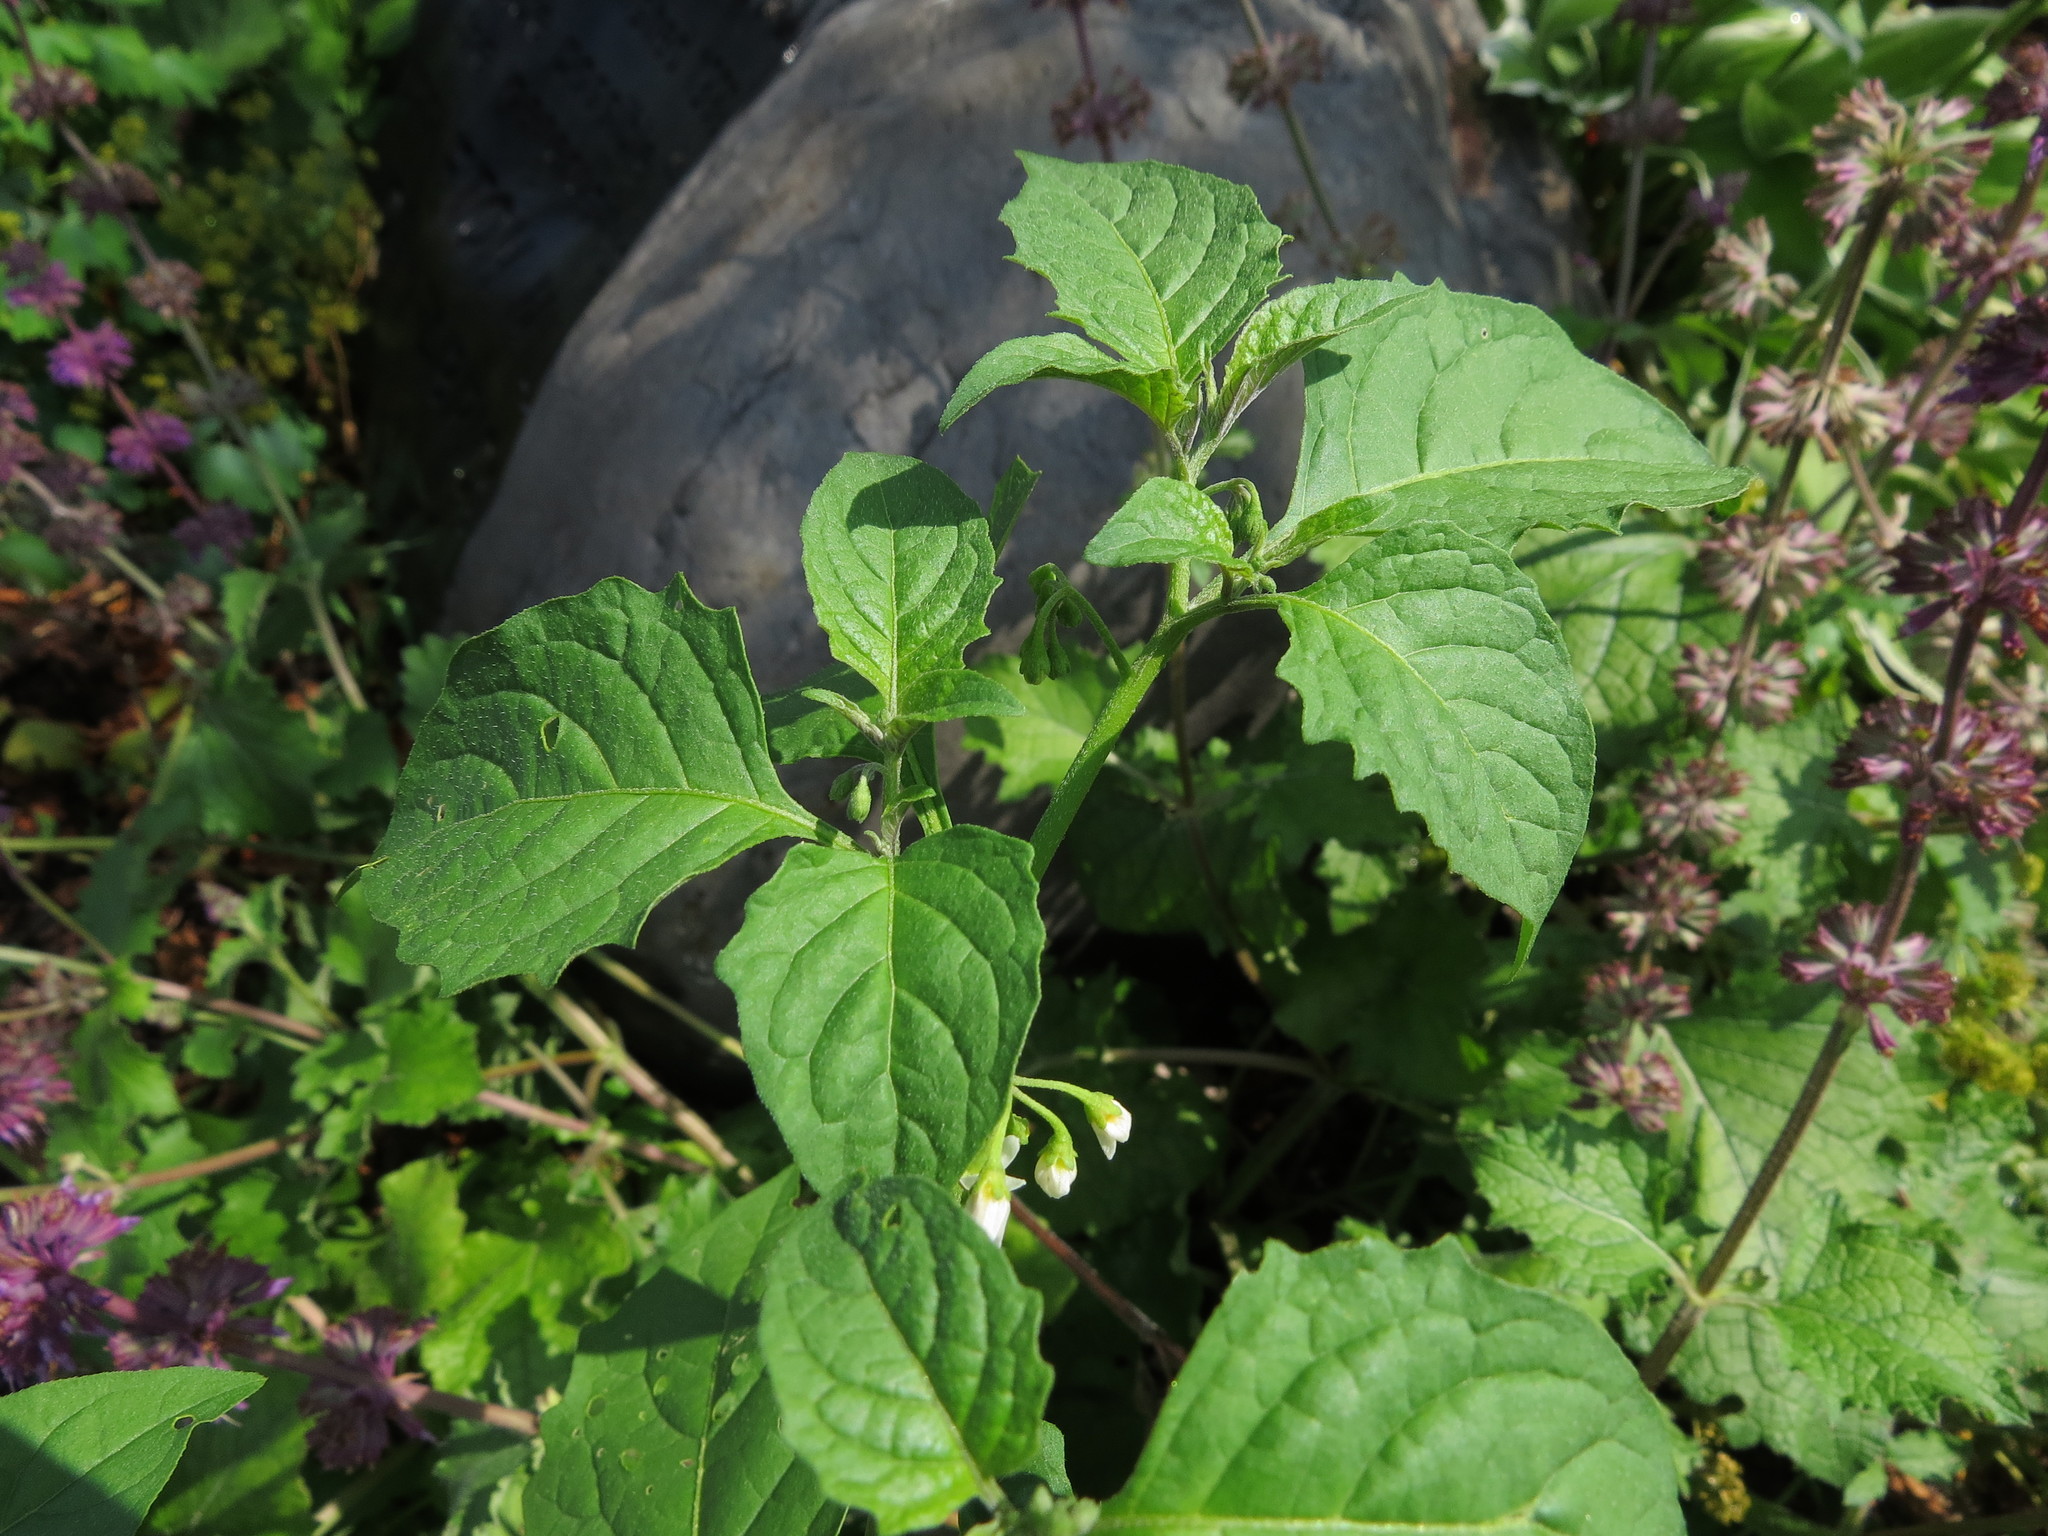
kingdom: Plantae
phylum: Tracheophyta
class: Magnoliopsida
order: Solanales
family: Solanaceae
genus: Solanum
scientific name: Solanum emulans
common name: Eastern black nightshade
